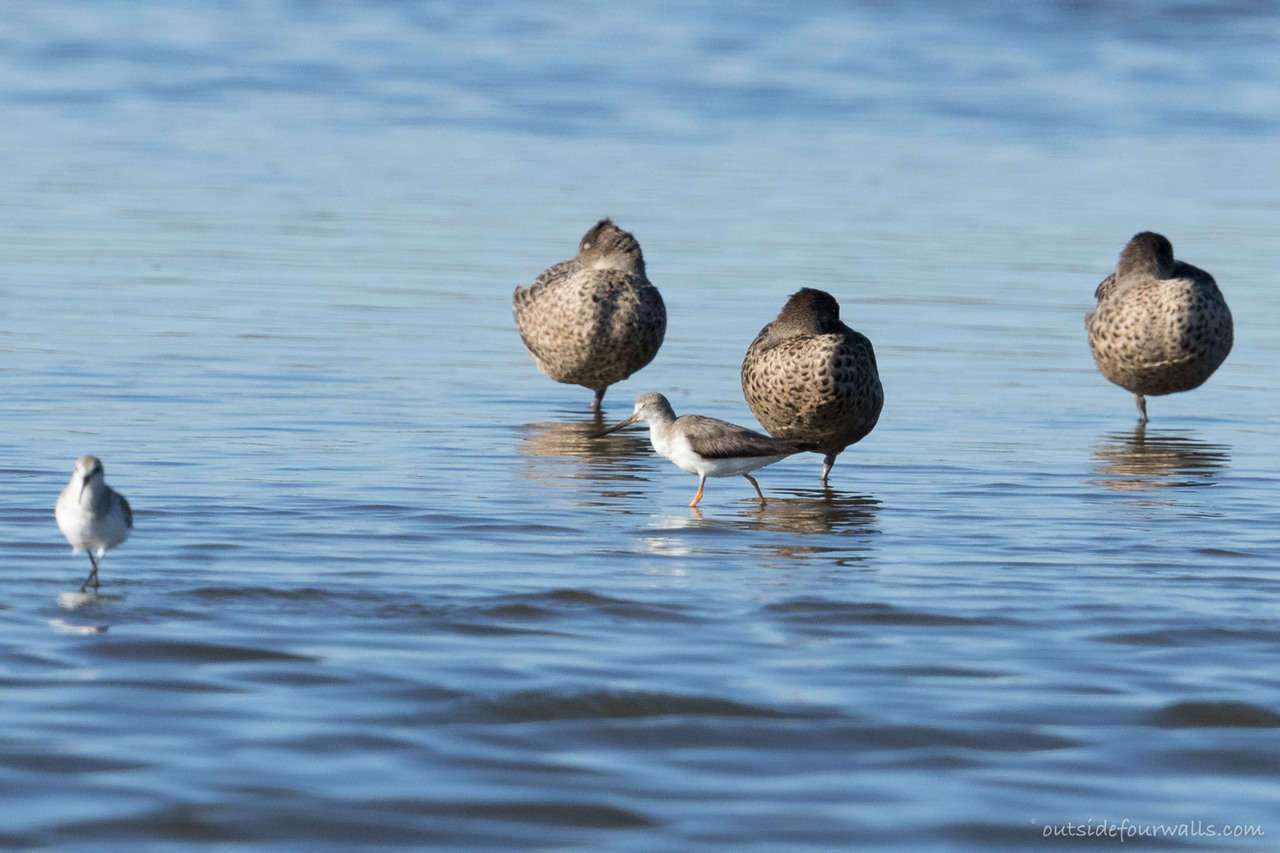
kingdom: Animalia
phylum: Chordata
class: Aves
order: Charadriiformes
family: Scolopacidae
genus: Xenus
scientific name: Xenus cinereus
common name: Terek sandpiper
